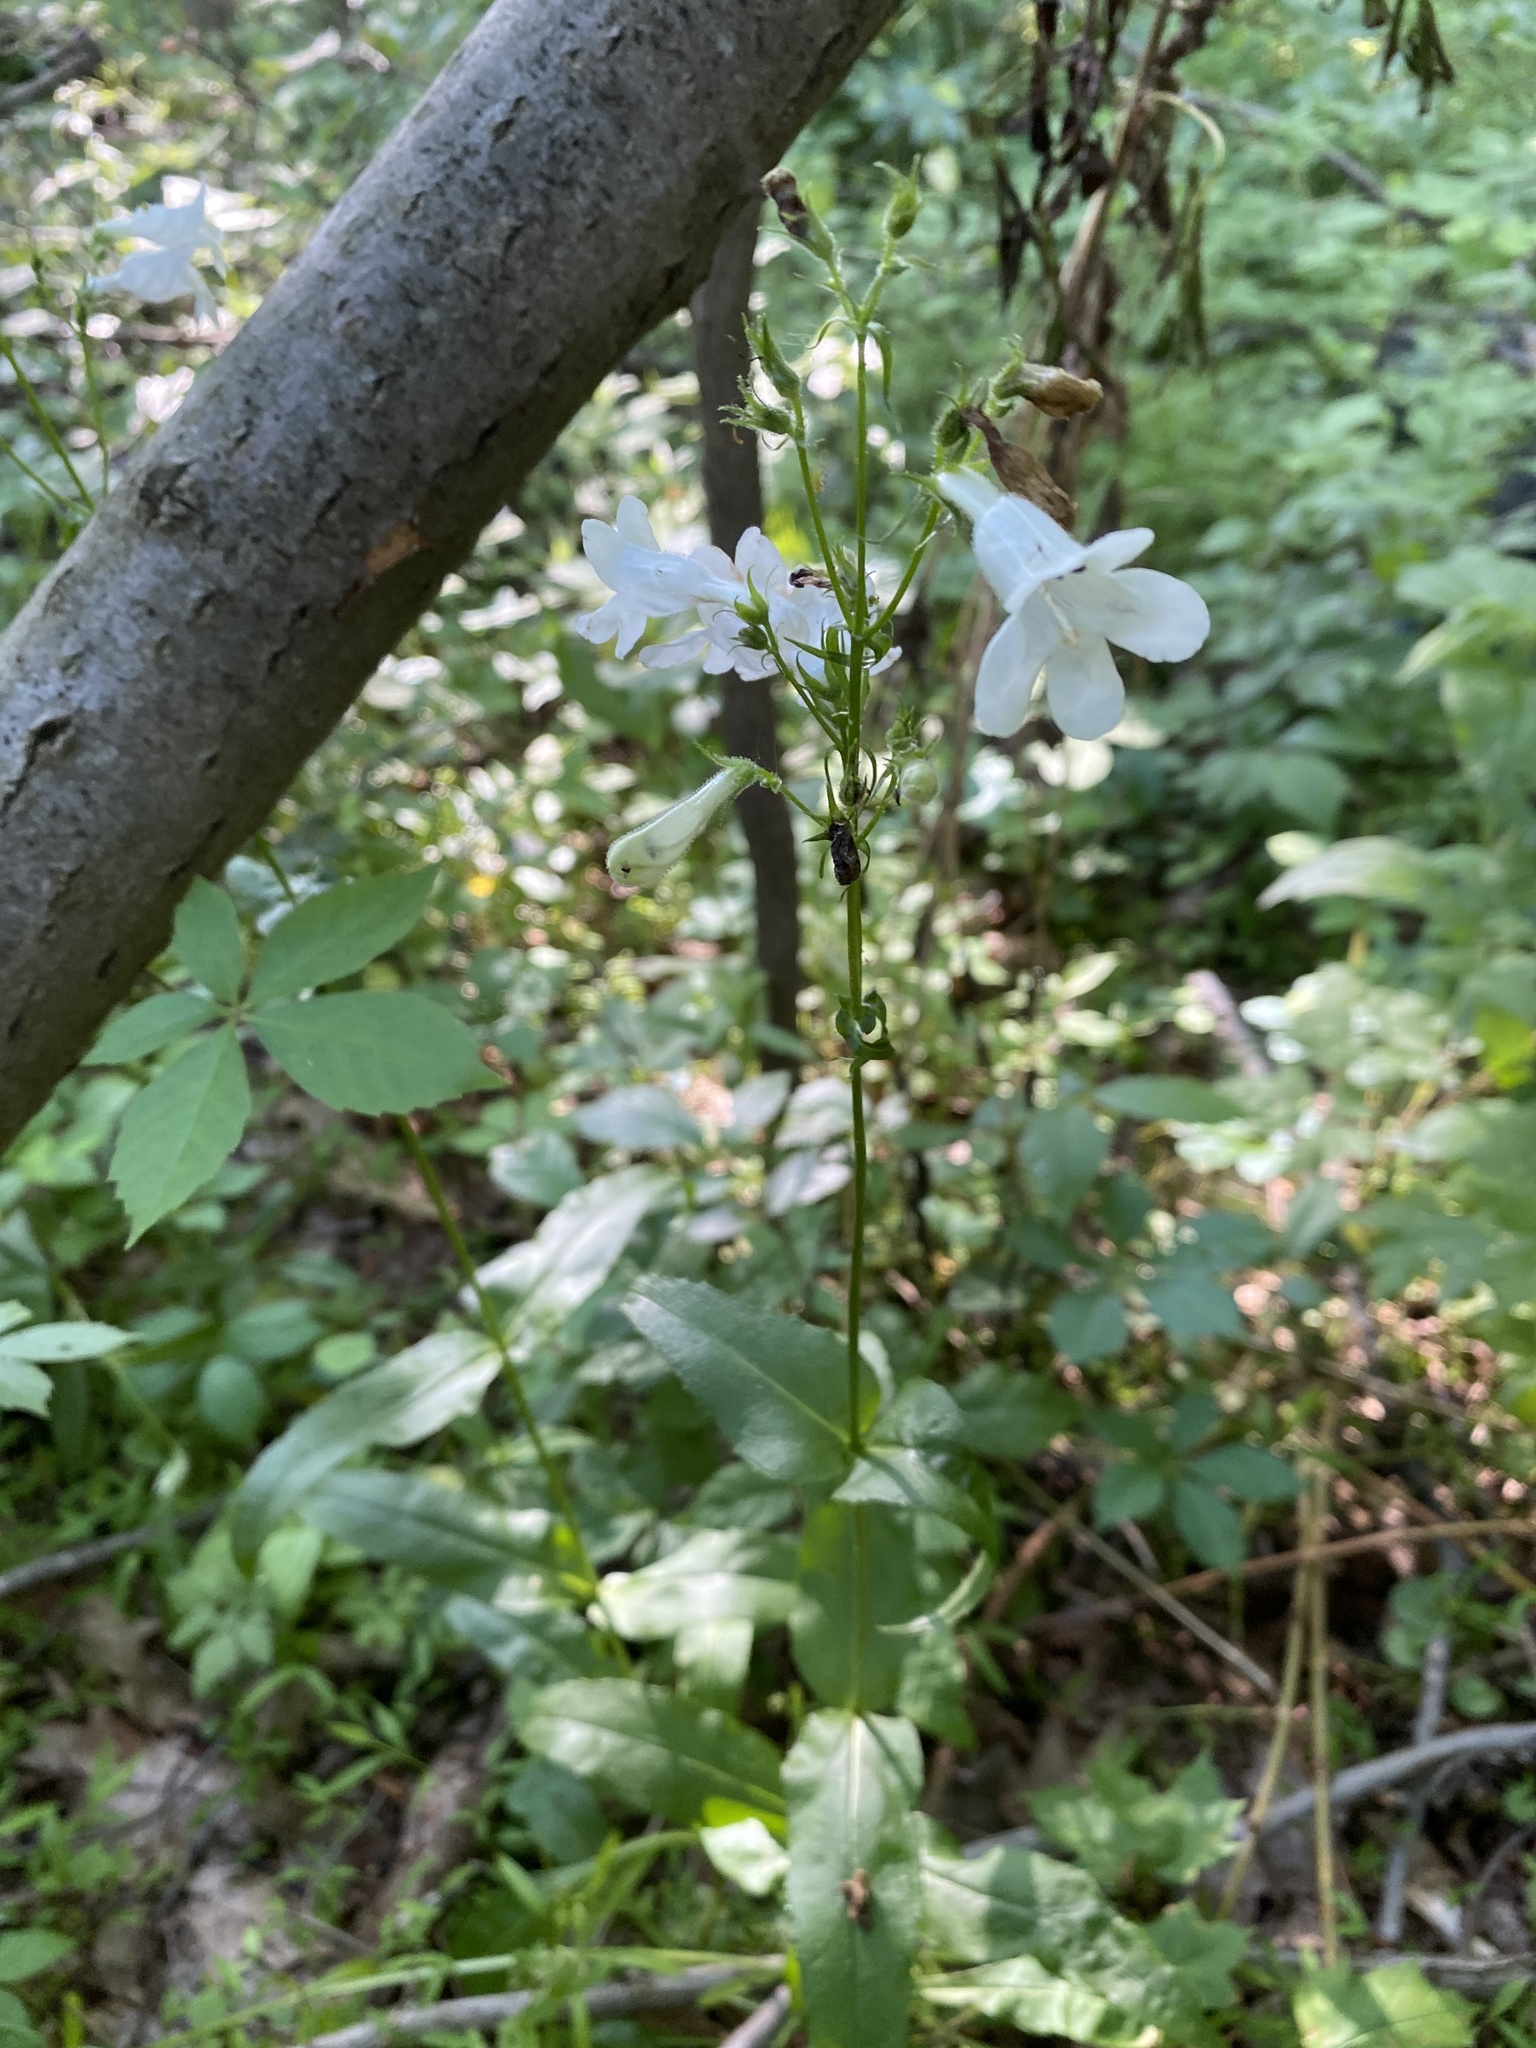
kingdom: Plantae
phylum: Tracheophyta
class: Magnoliopsida
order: Lamiales
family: Plantaginaceae
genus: Penstemon
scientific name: Penstemon digitalis
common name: Foxglove beardtongue
